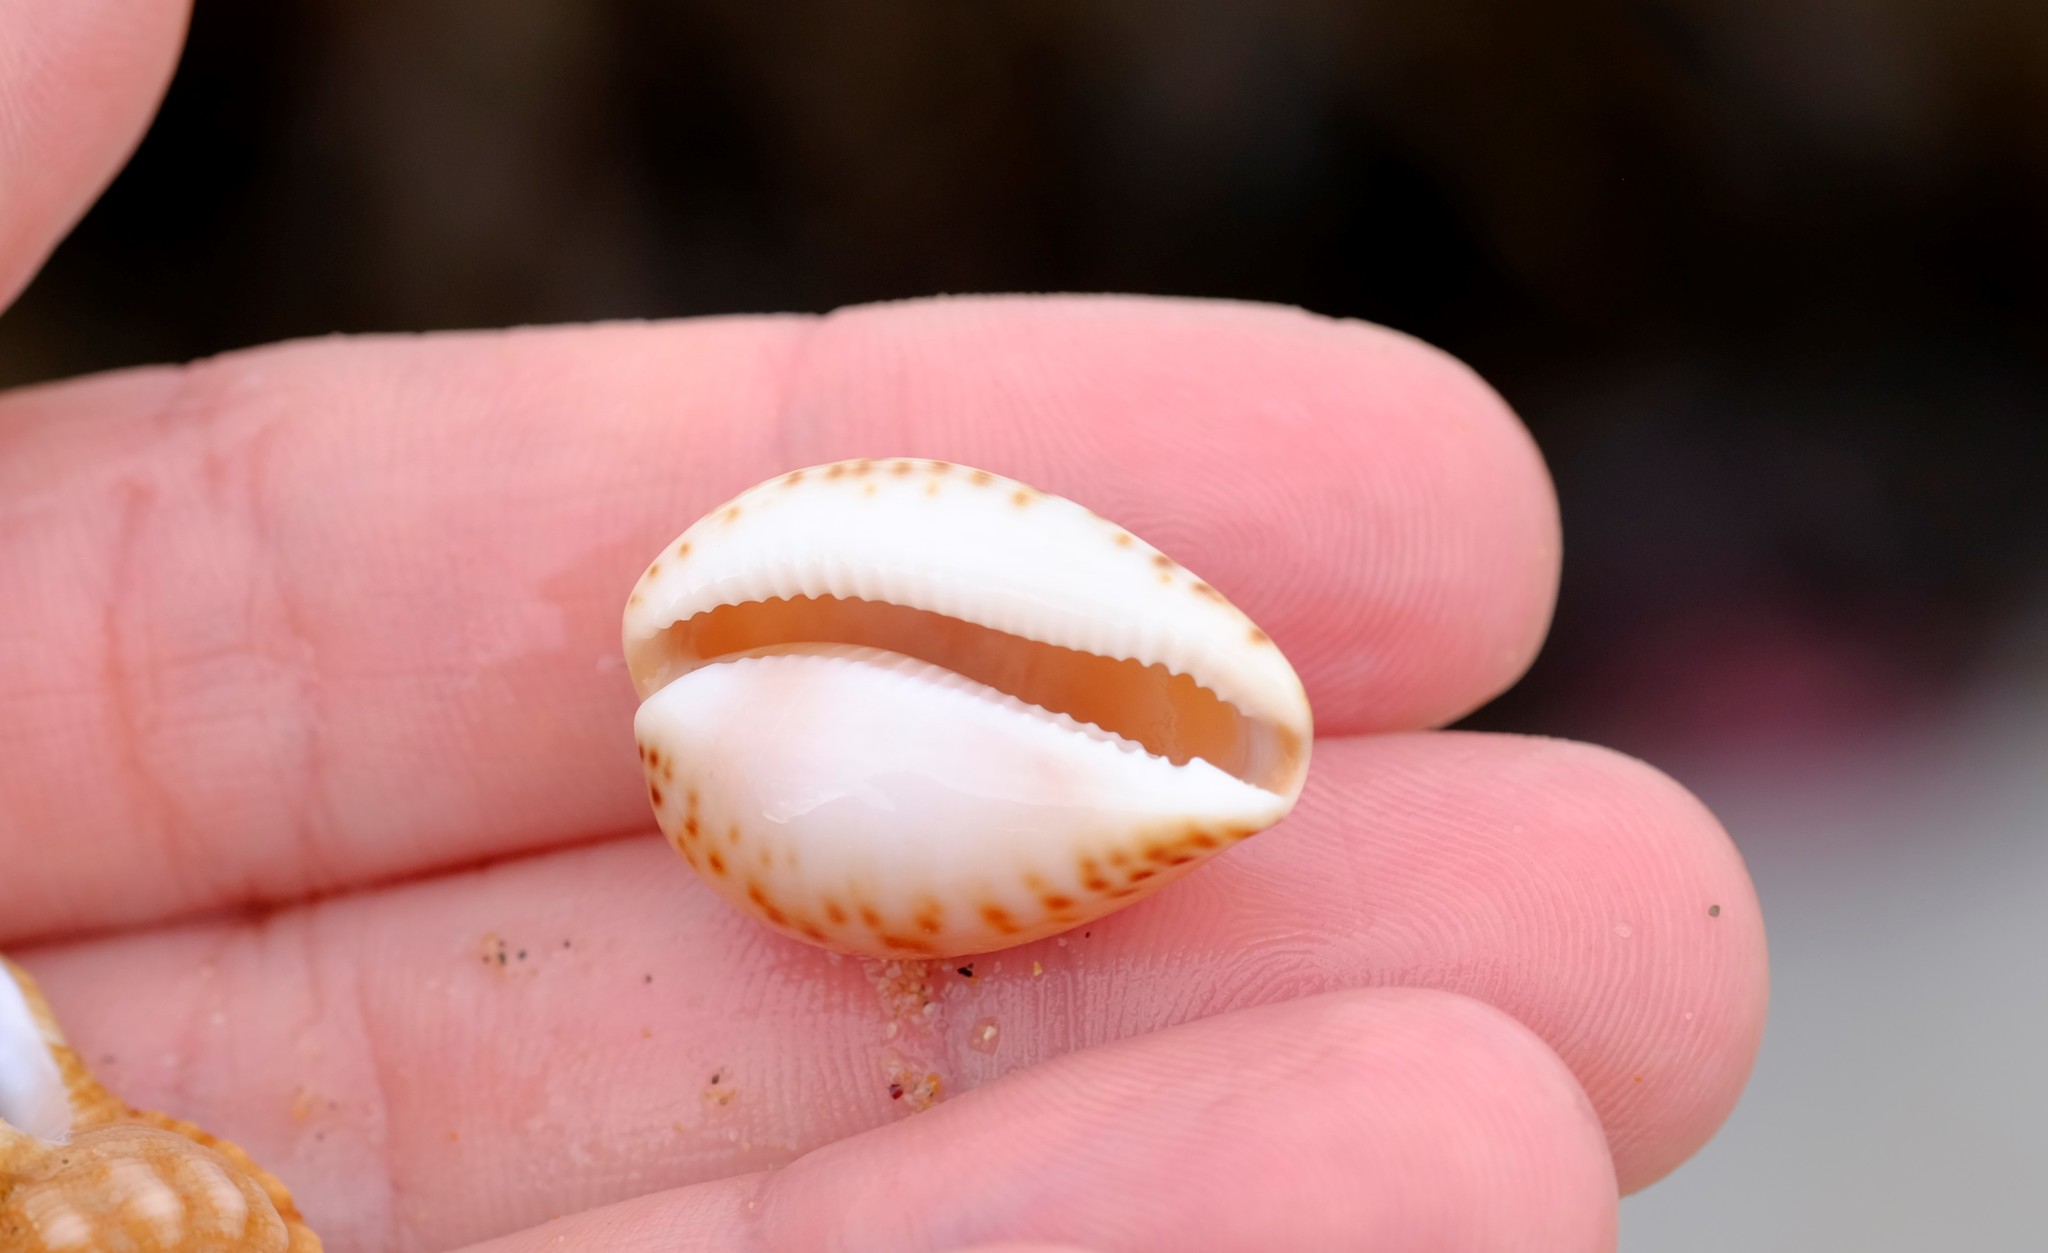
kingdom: Animalia
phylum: Mollusca
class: Gastropoda
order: Littorinimorpha
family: Cypraeidae
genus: Notocypraea
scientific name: Notocypraea angustata
